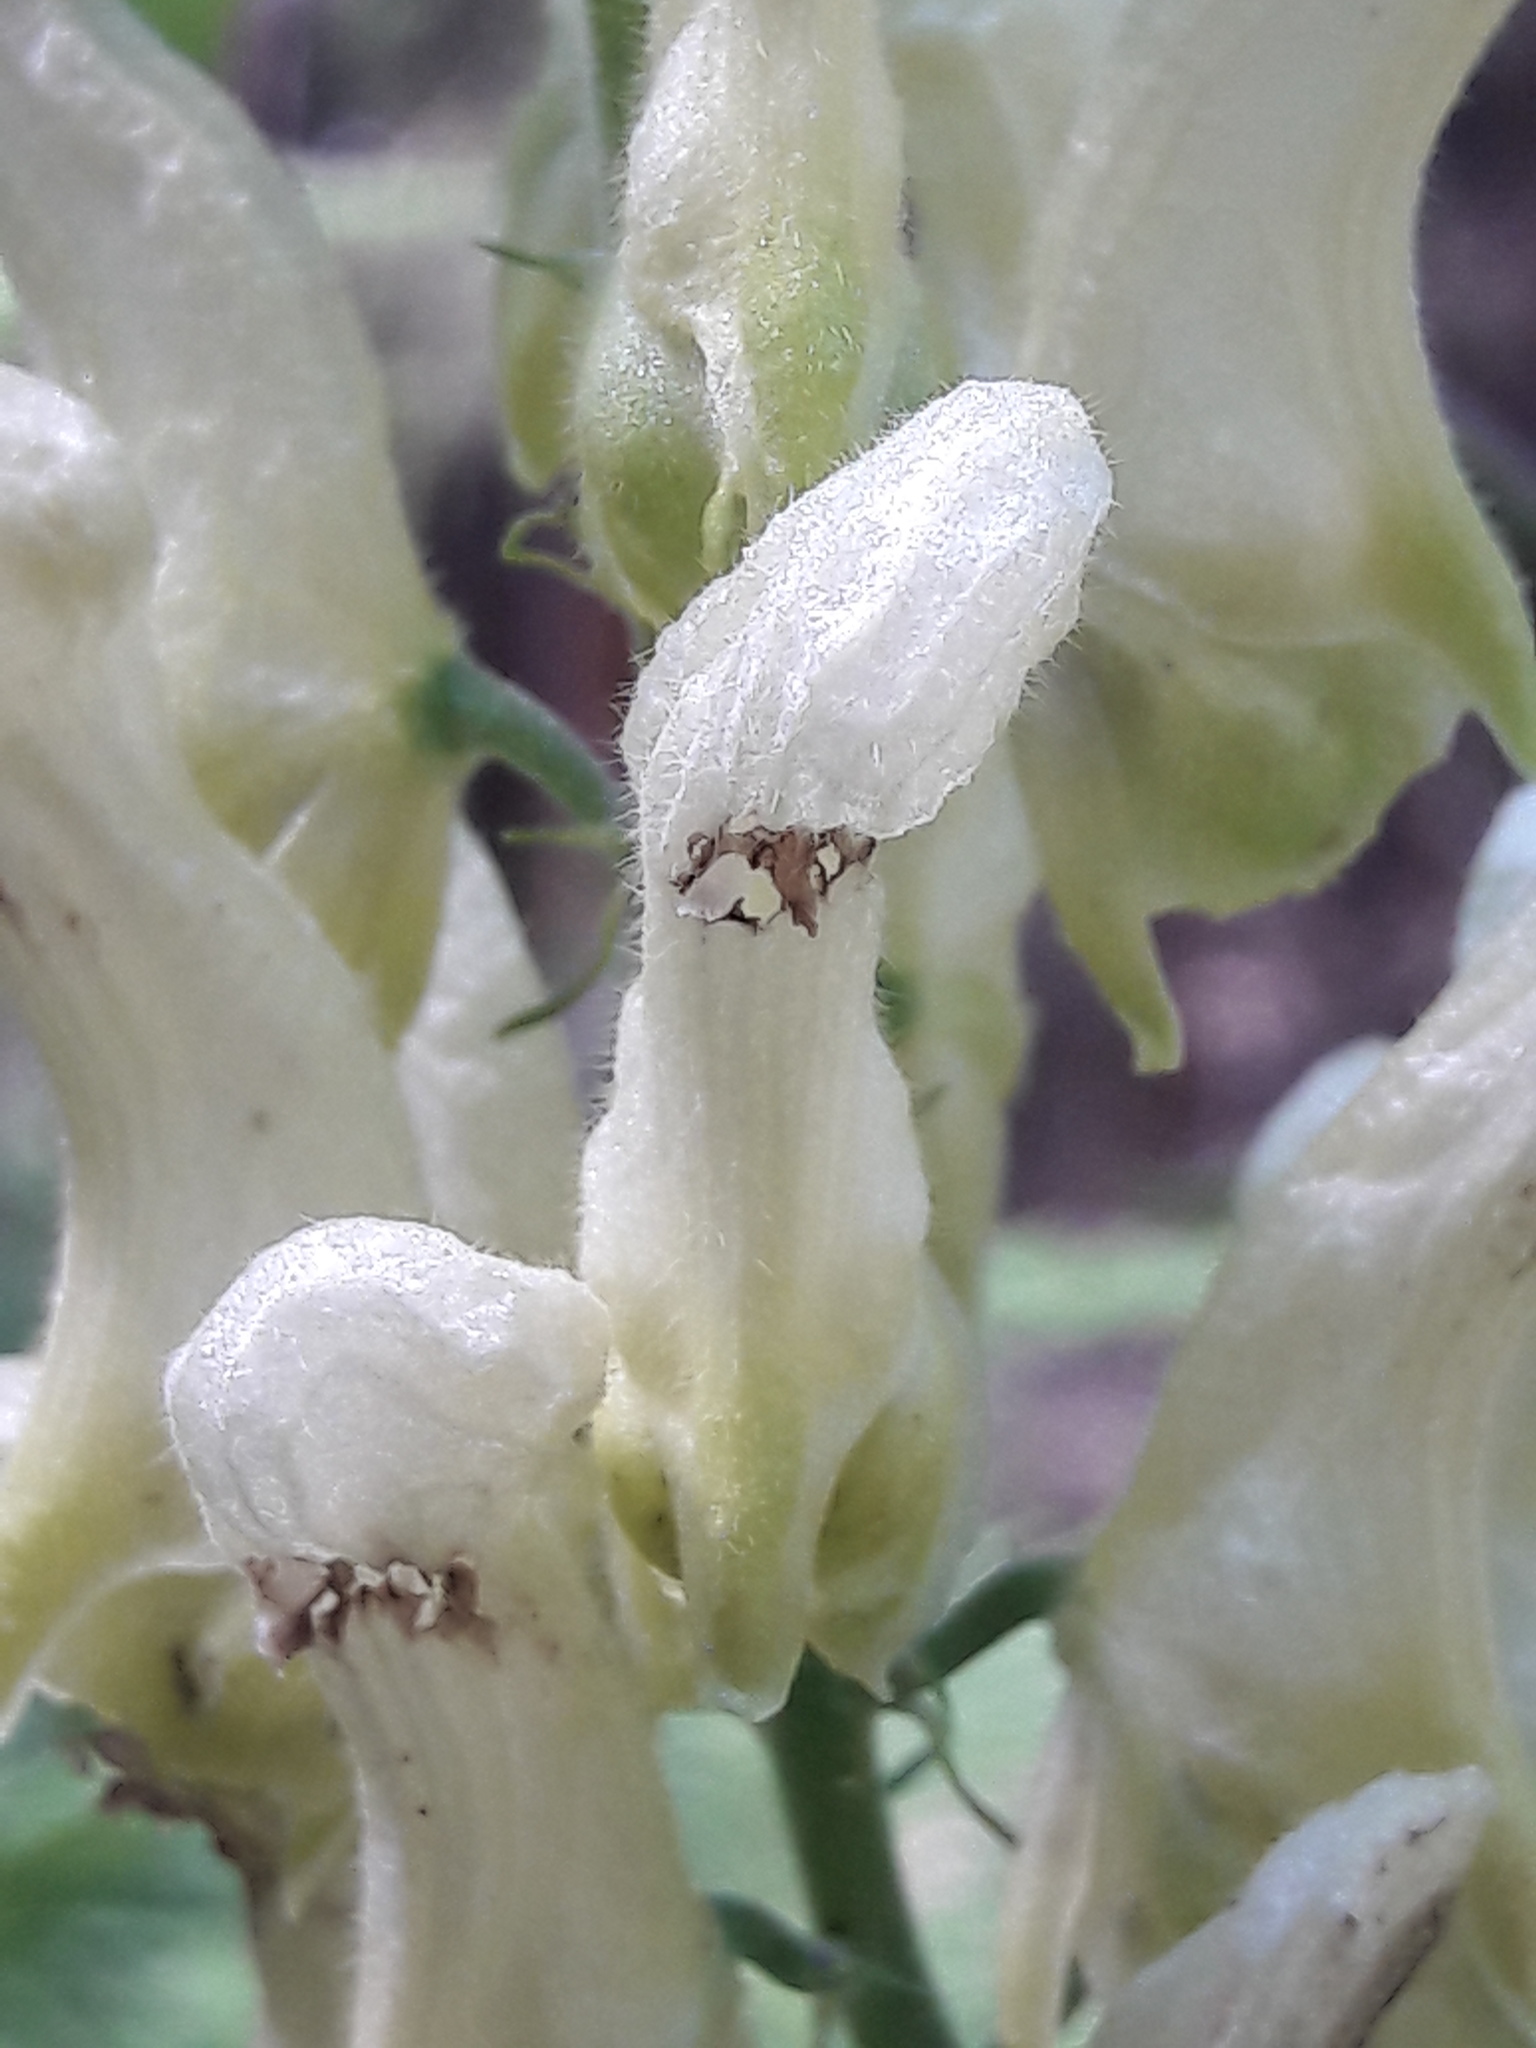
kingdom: Plantae
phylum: Tracheophyta
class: Magnoliopsida
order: Ranunculales
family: Ranunculaceae
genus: Aconitum
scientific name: Aconitum lycoctonum
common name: Wolf's-bane
